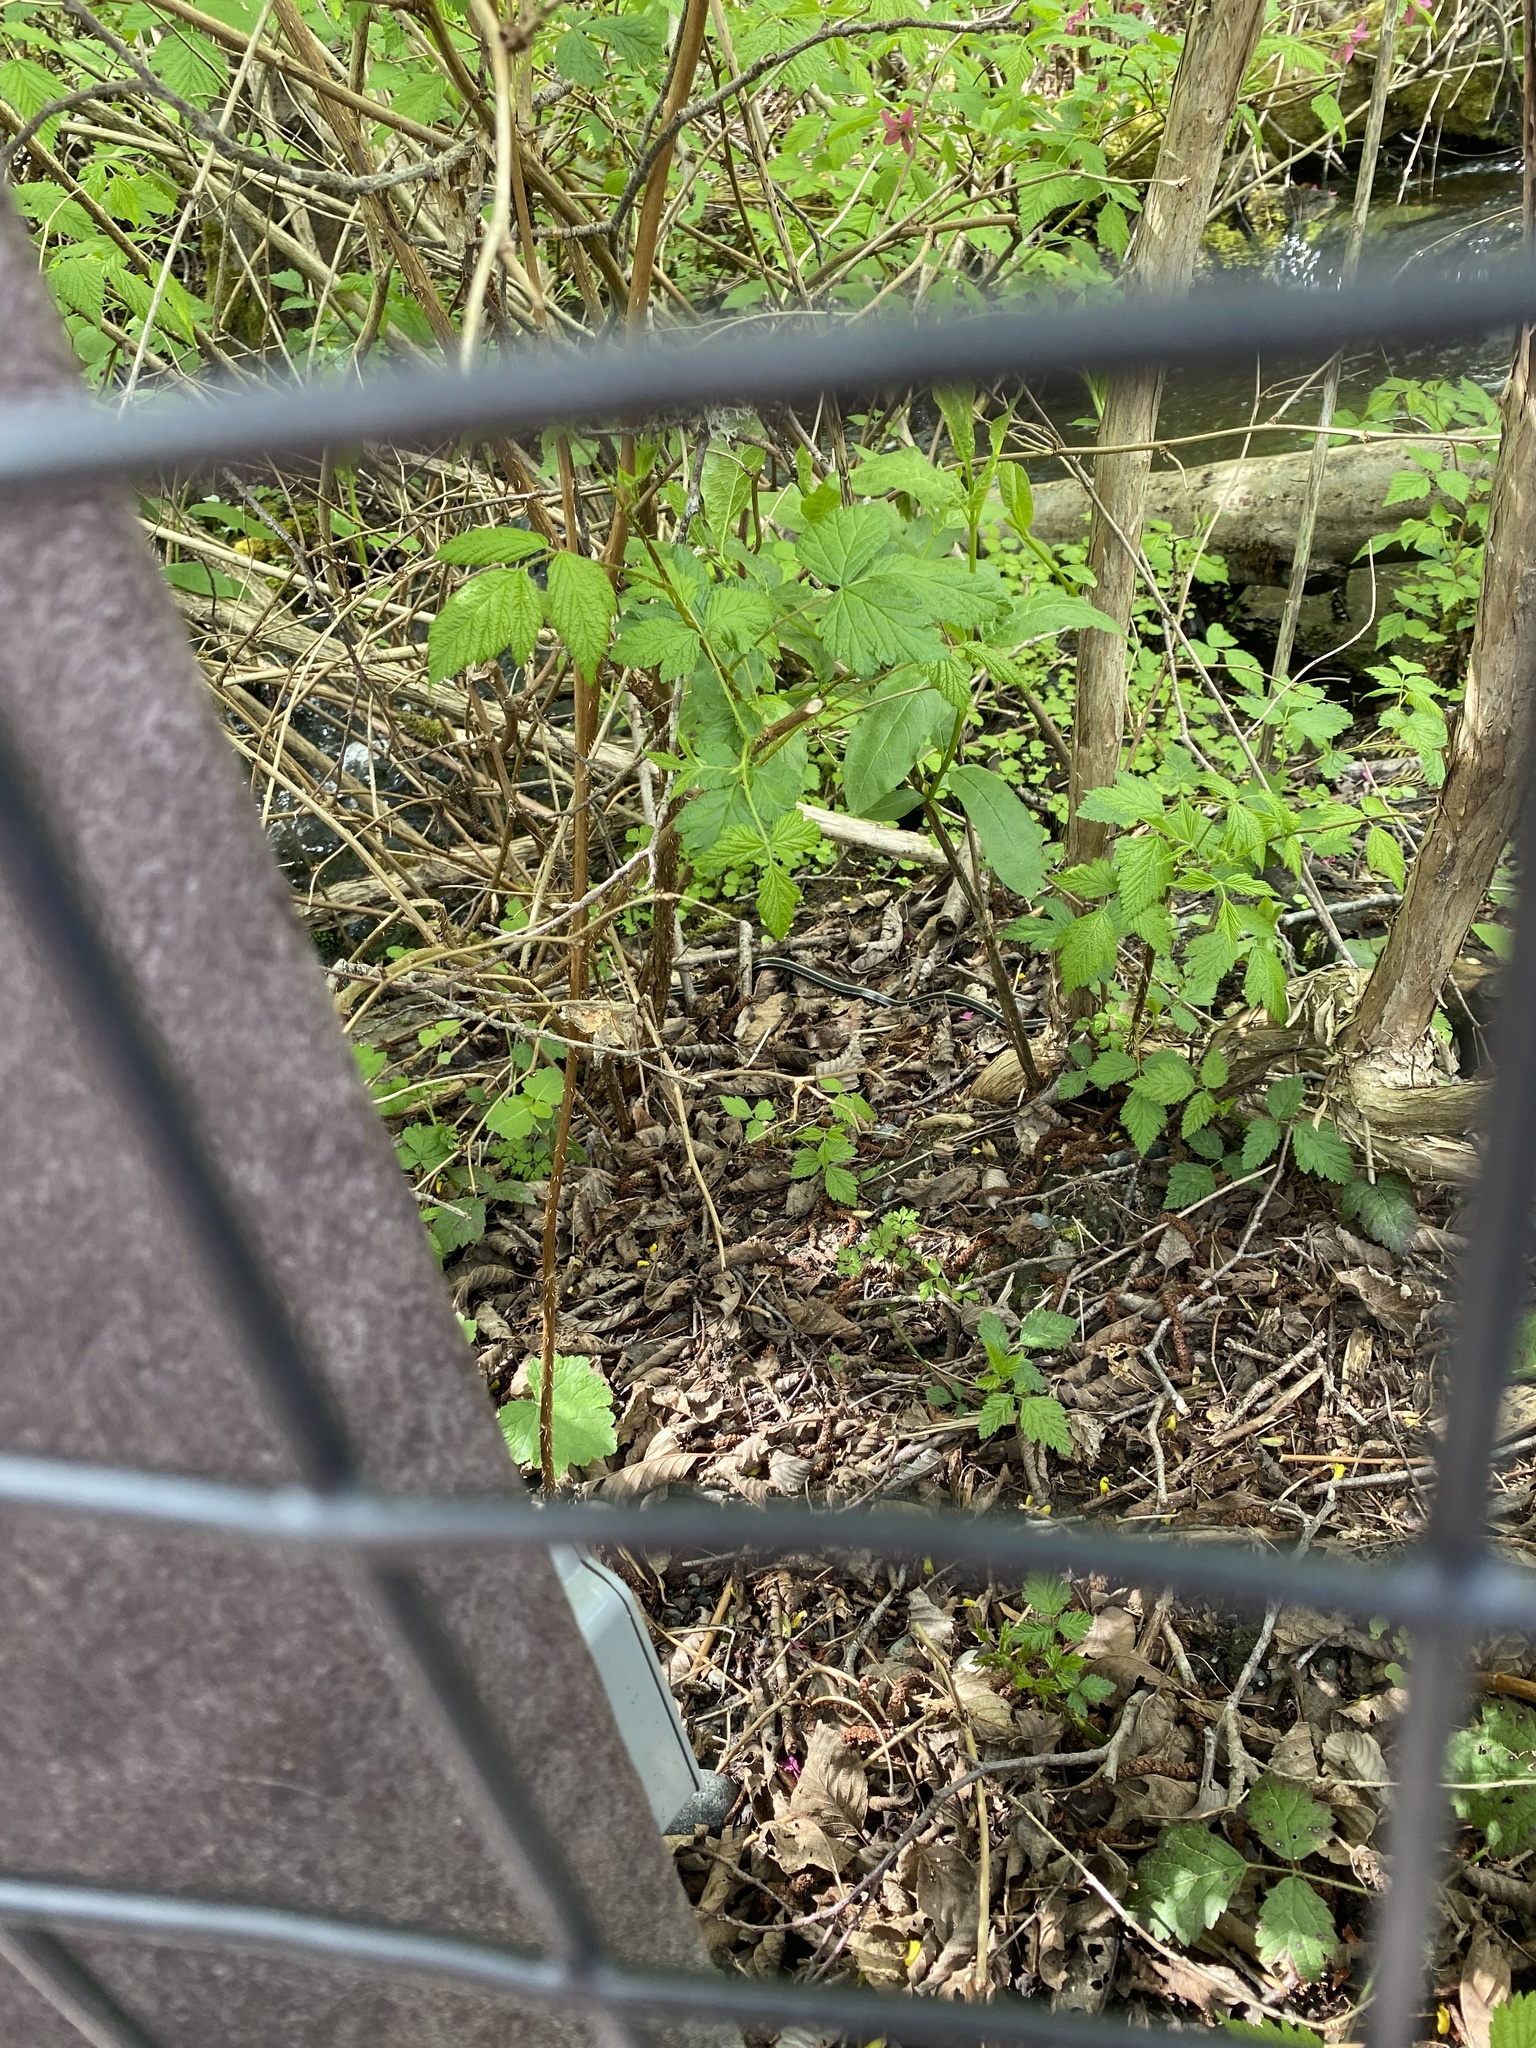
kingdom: Animalia
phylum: Chordata
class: Squamata
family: Colubridae
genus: Thamnophis
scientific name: Thamnophis
